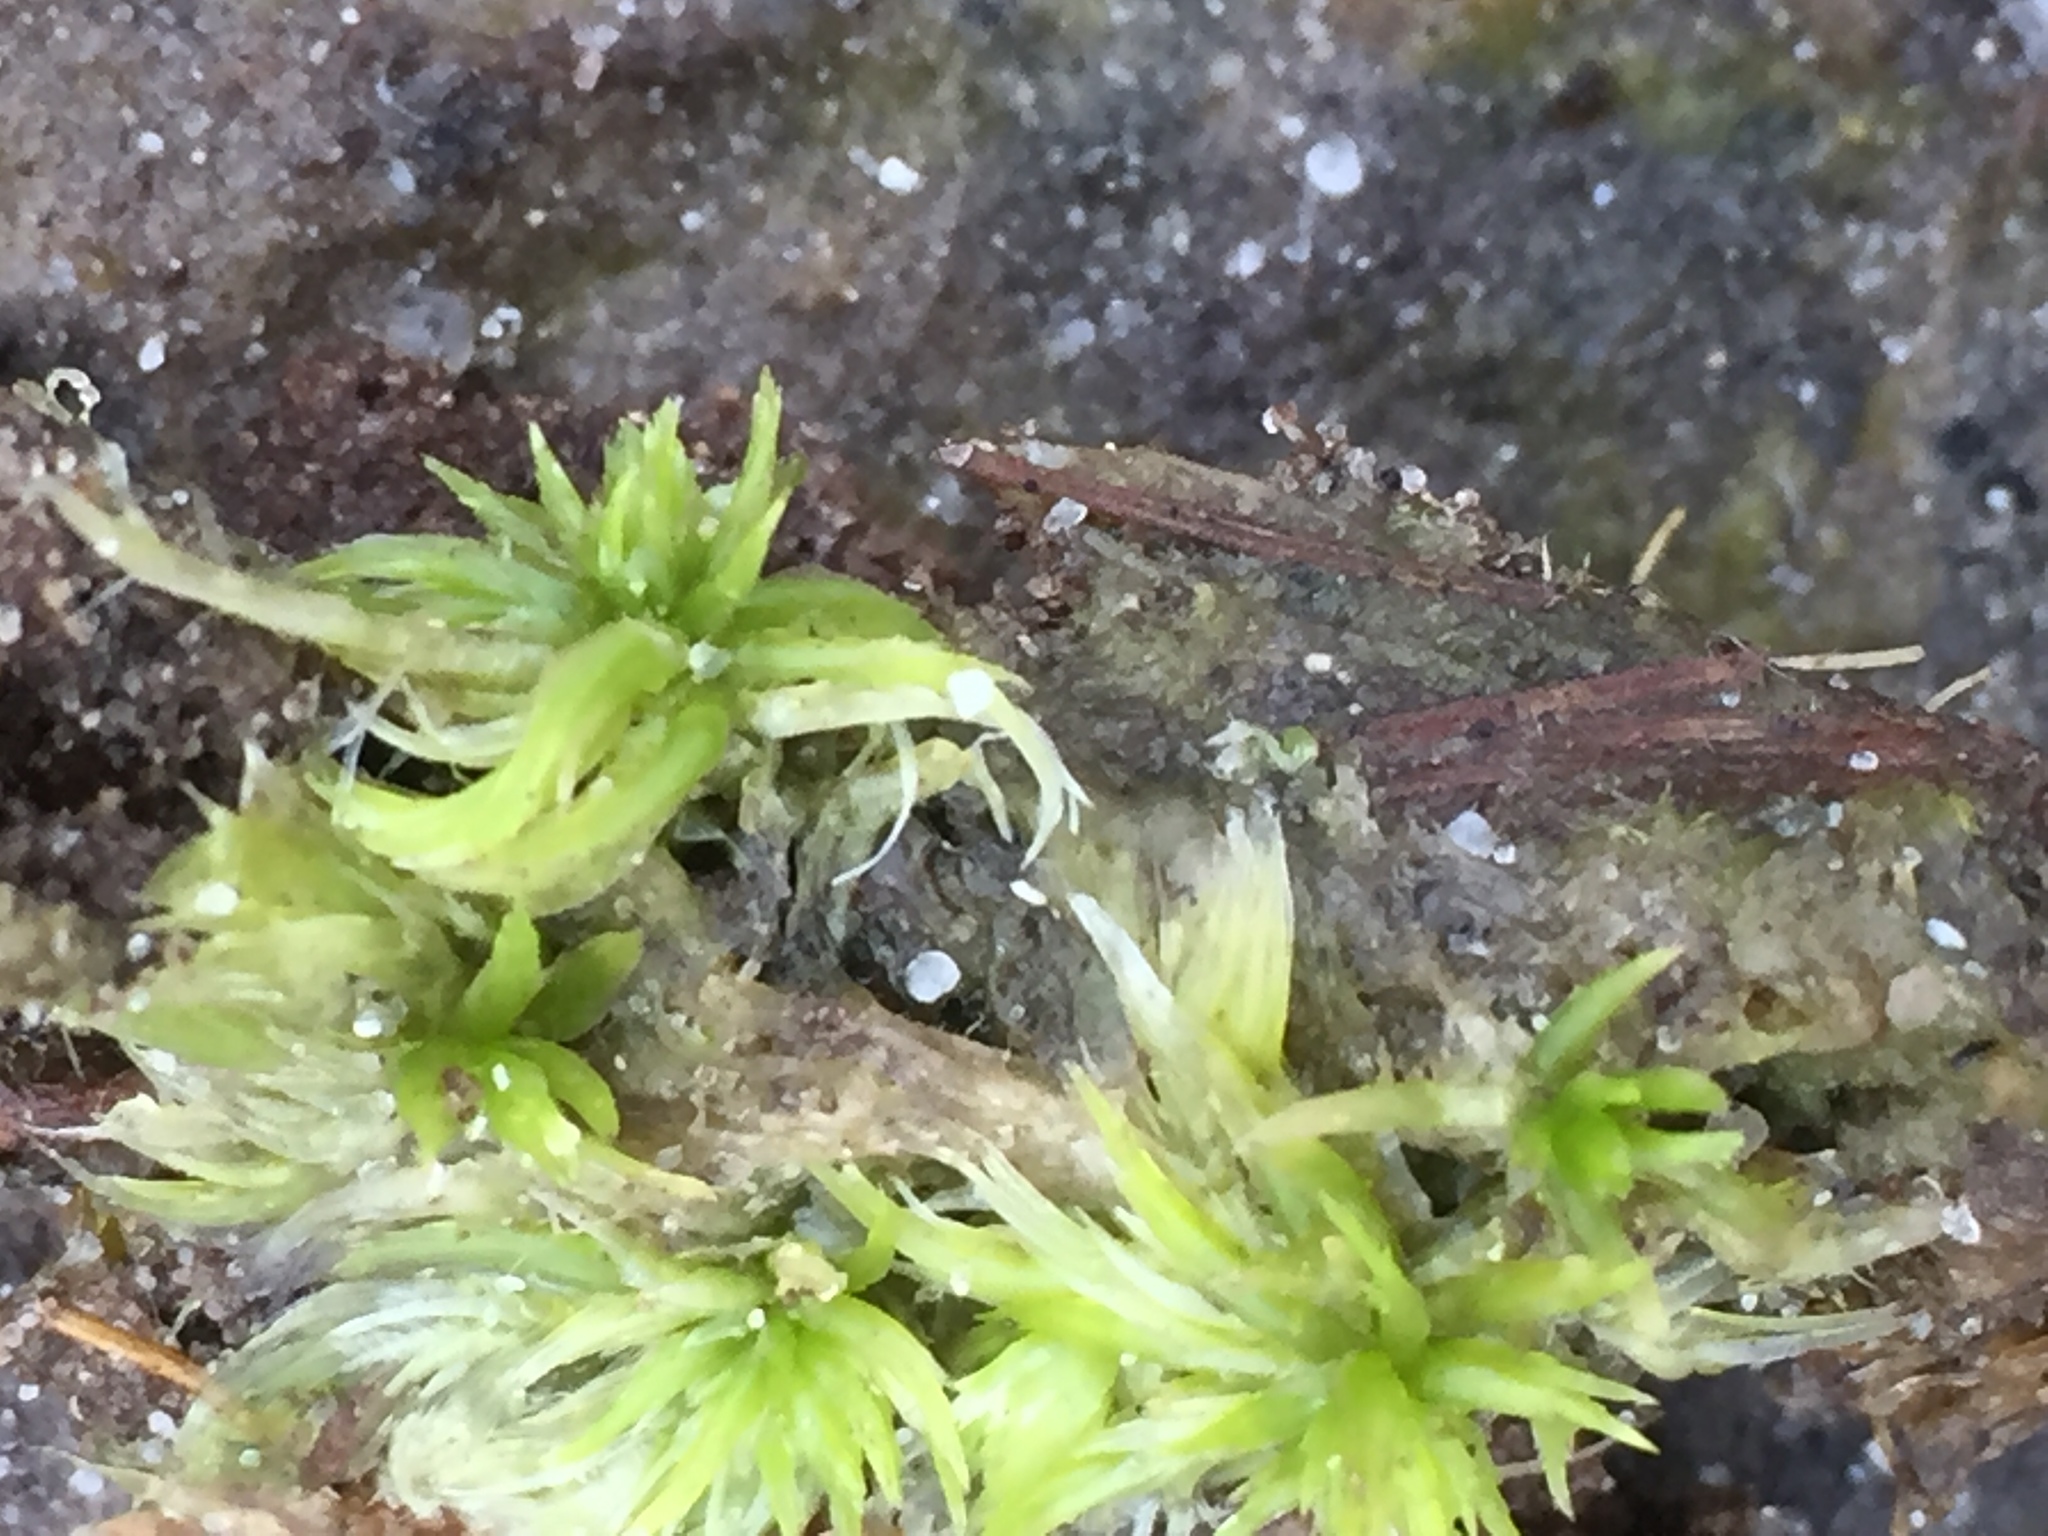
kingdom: Plantae
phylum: Bryophyta
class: Sphagnopsida
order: Sphagnales
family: Sphagnaceae
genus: Sphagnum
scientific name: Sphagnum denticulatum
